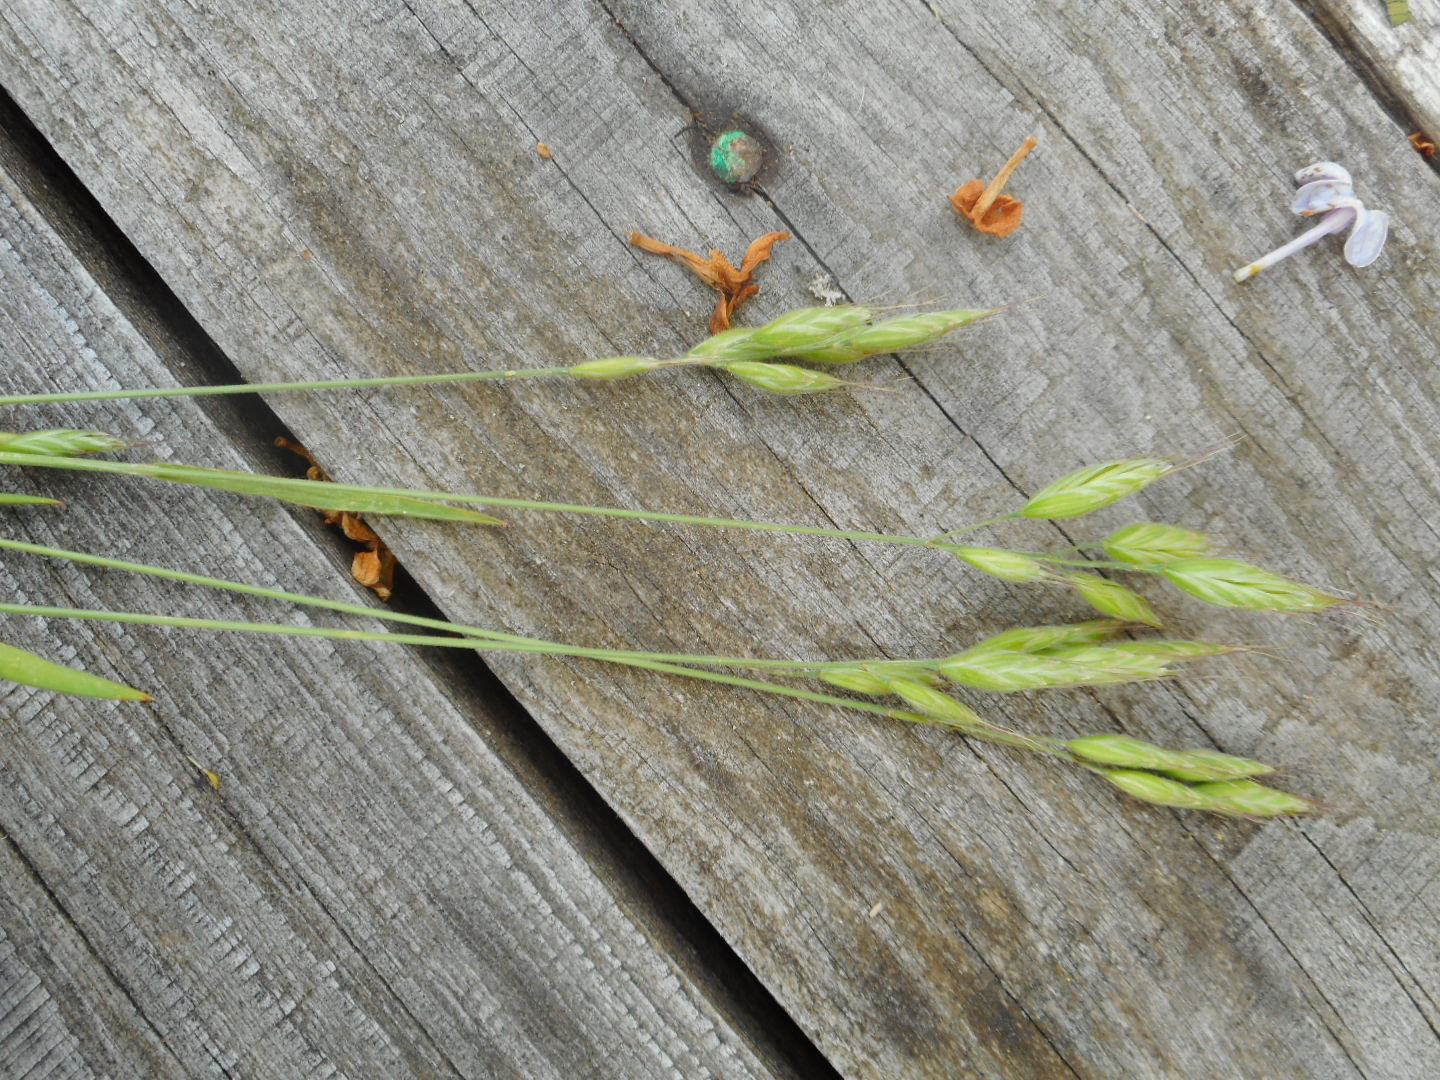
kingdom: Plantae
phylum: Tracheophyta
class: Liliopsida
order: Poales
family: Poaceae
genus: Bromus
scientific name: Bromus hordeaceus
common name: Soft brome
